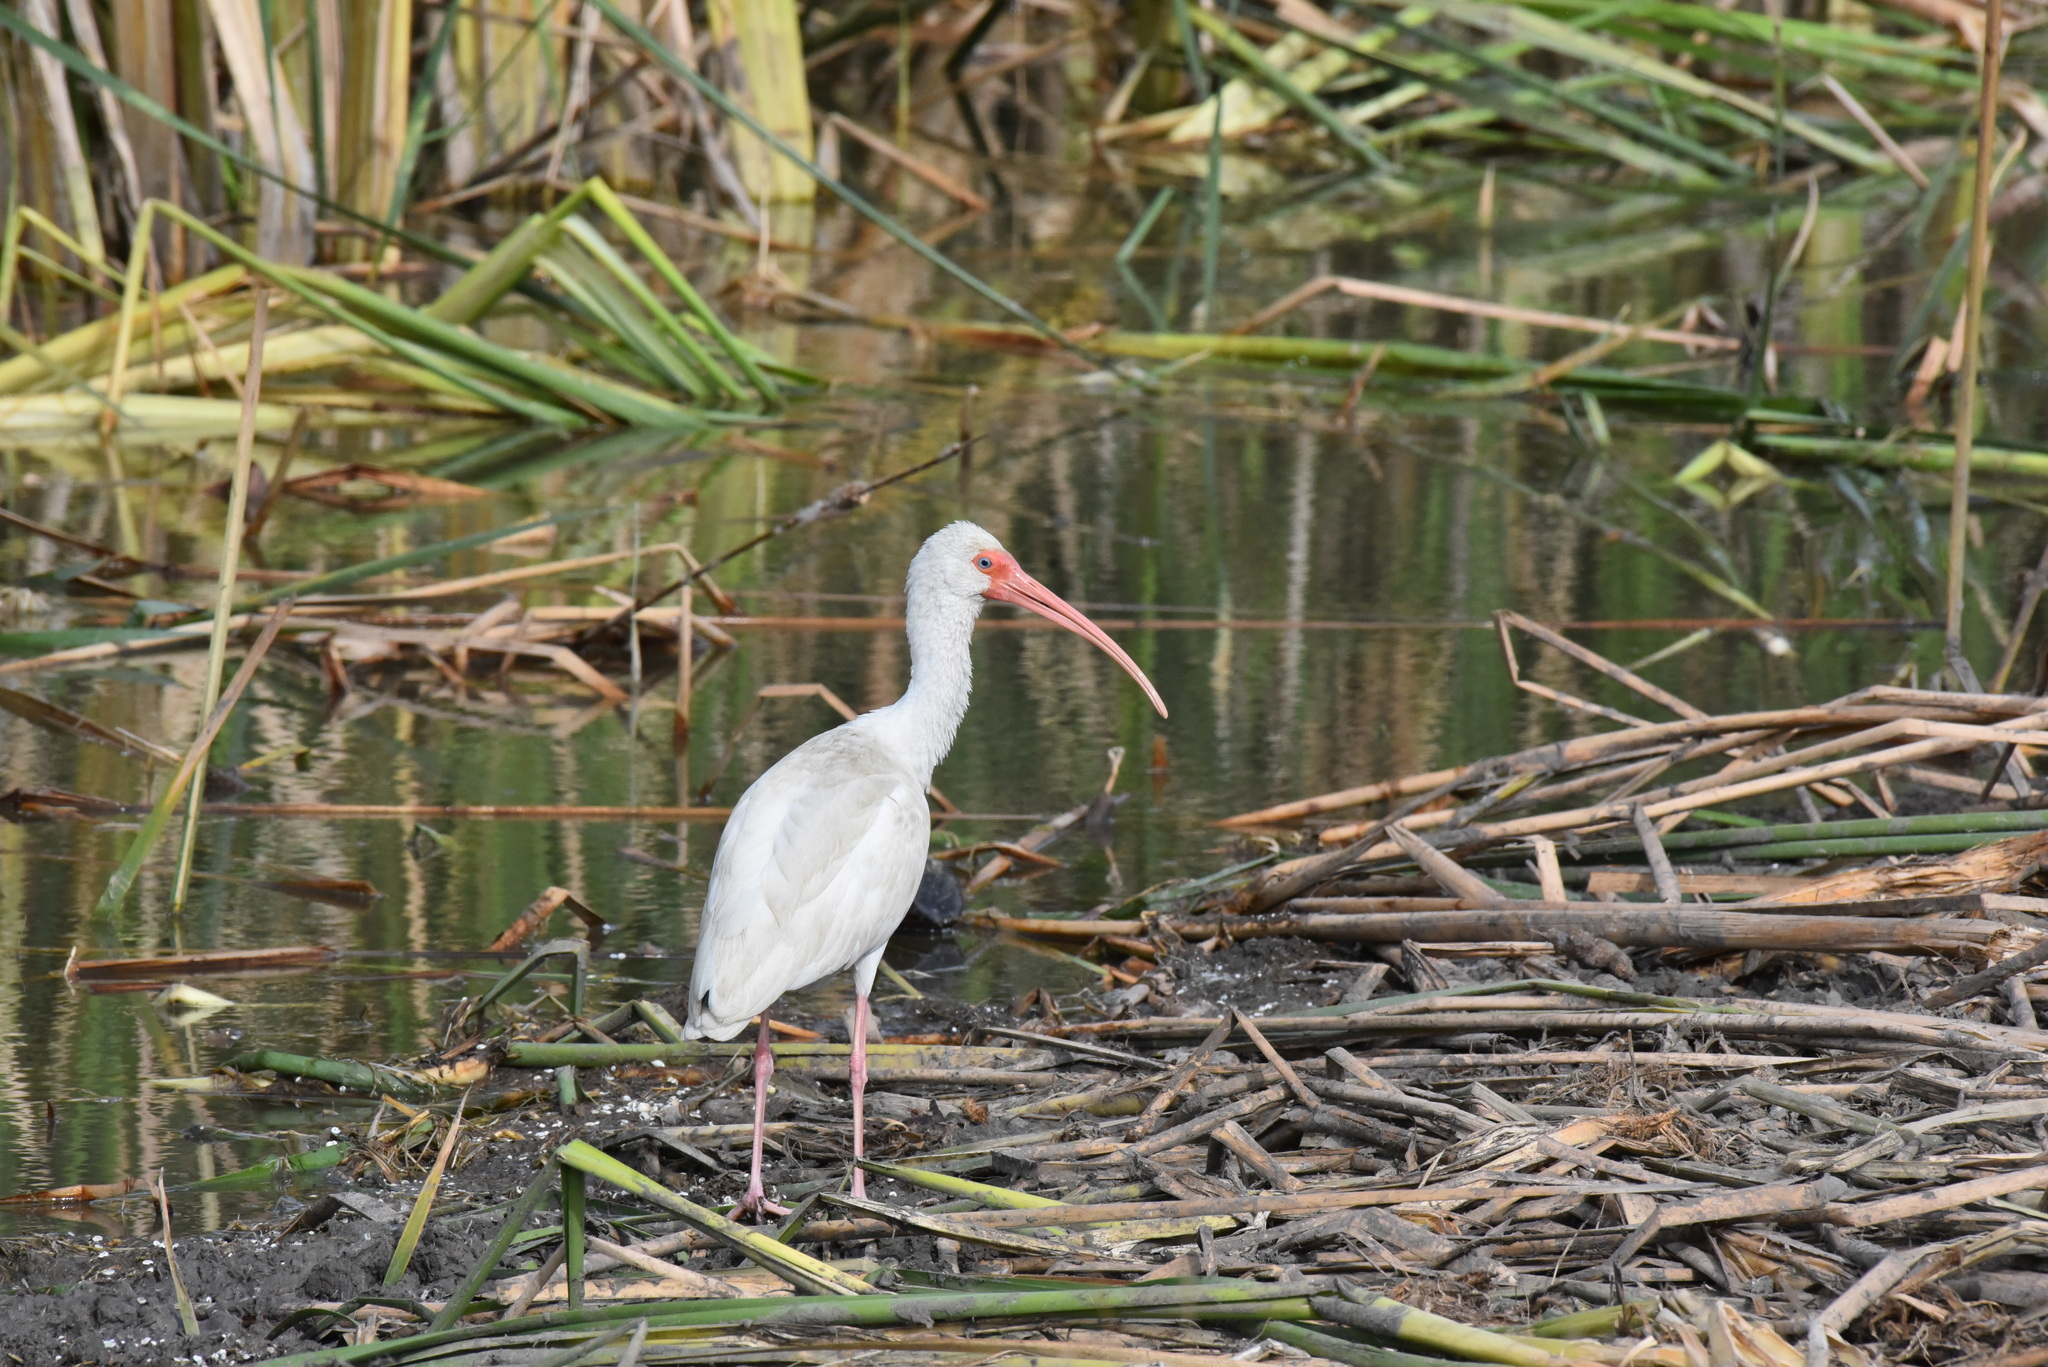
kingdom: Animalia
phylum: Chordata
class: Aves
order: Pelecaniformes
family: Threskiornithidae
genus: Eudocimus
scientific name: Eudocimus albus
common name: White ibis
